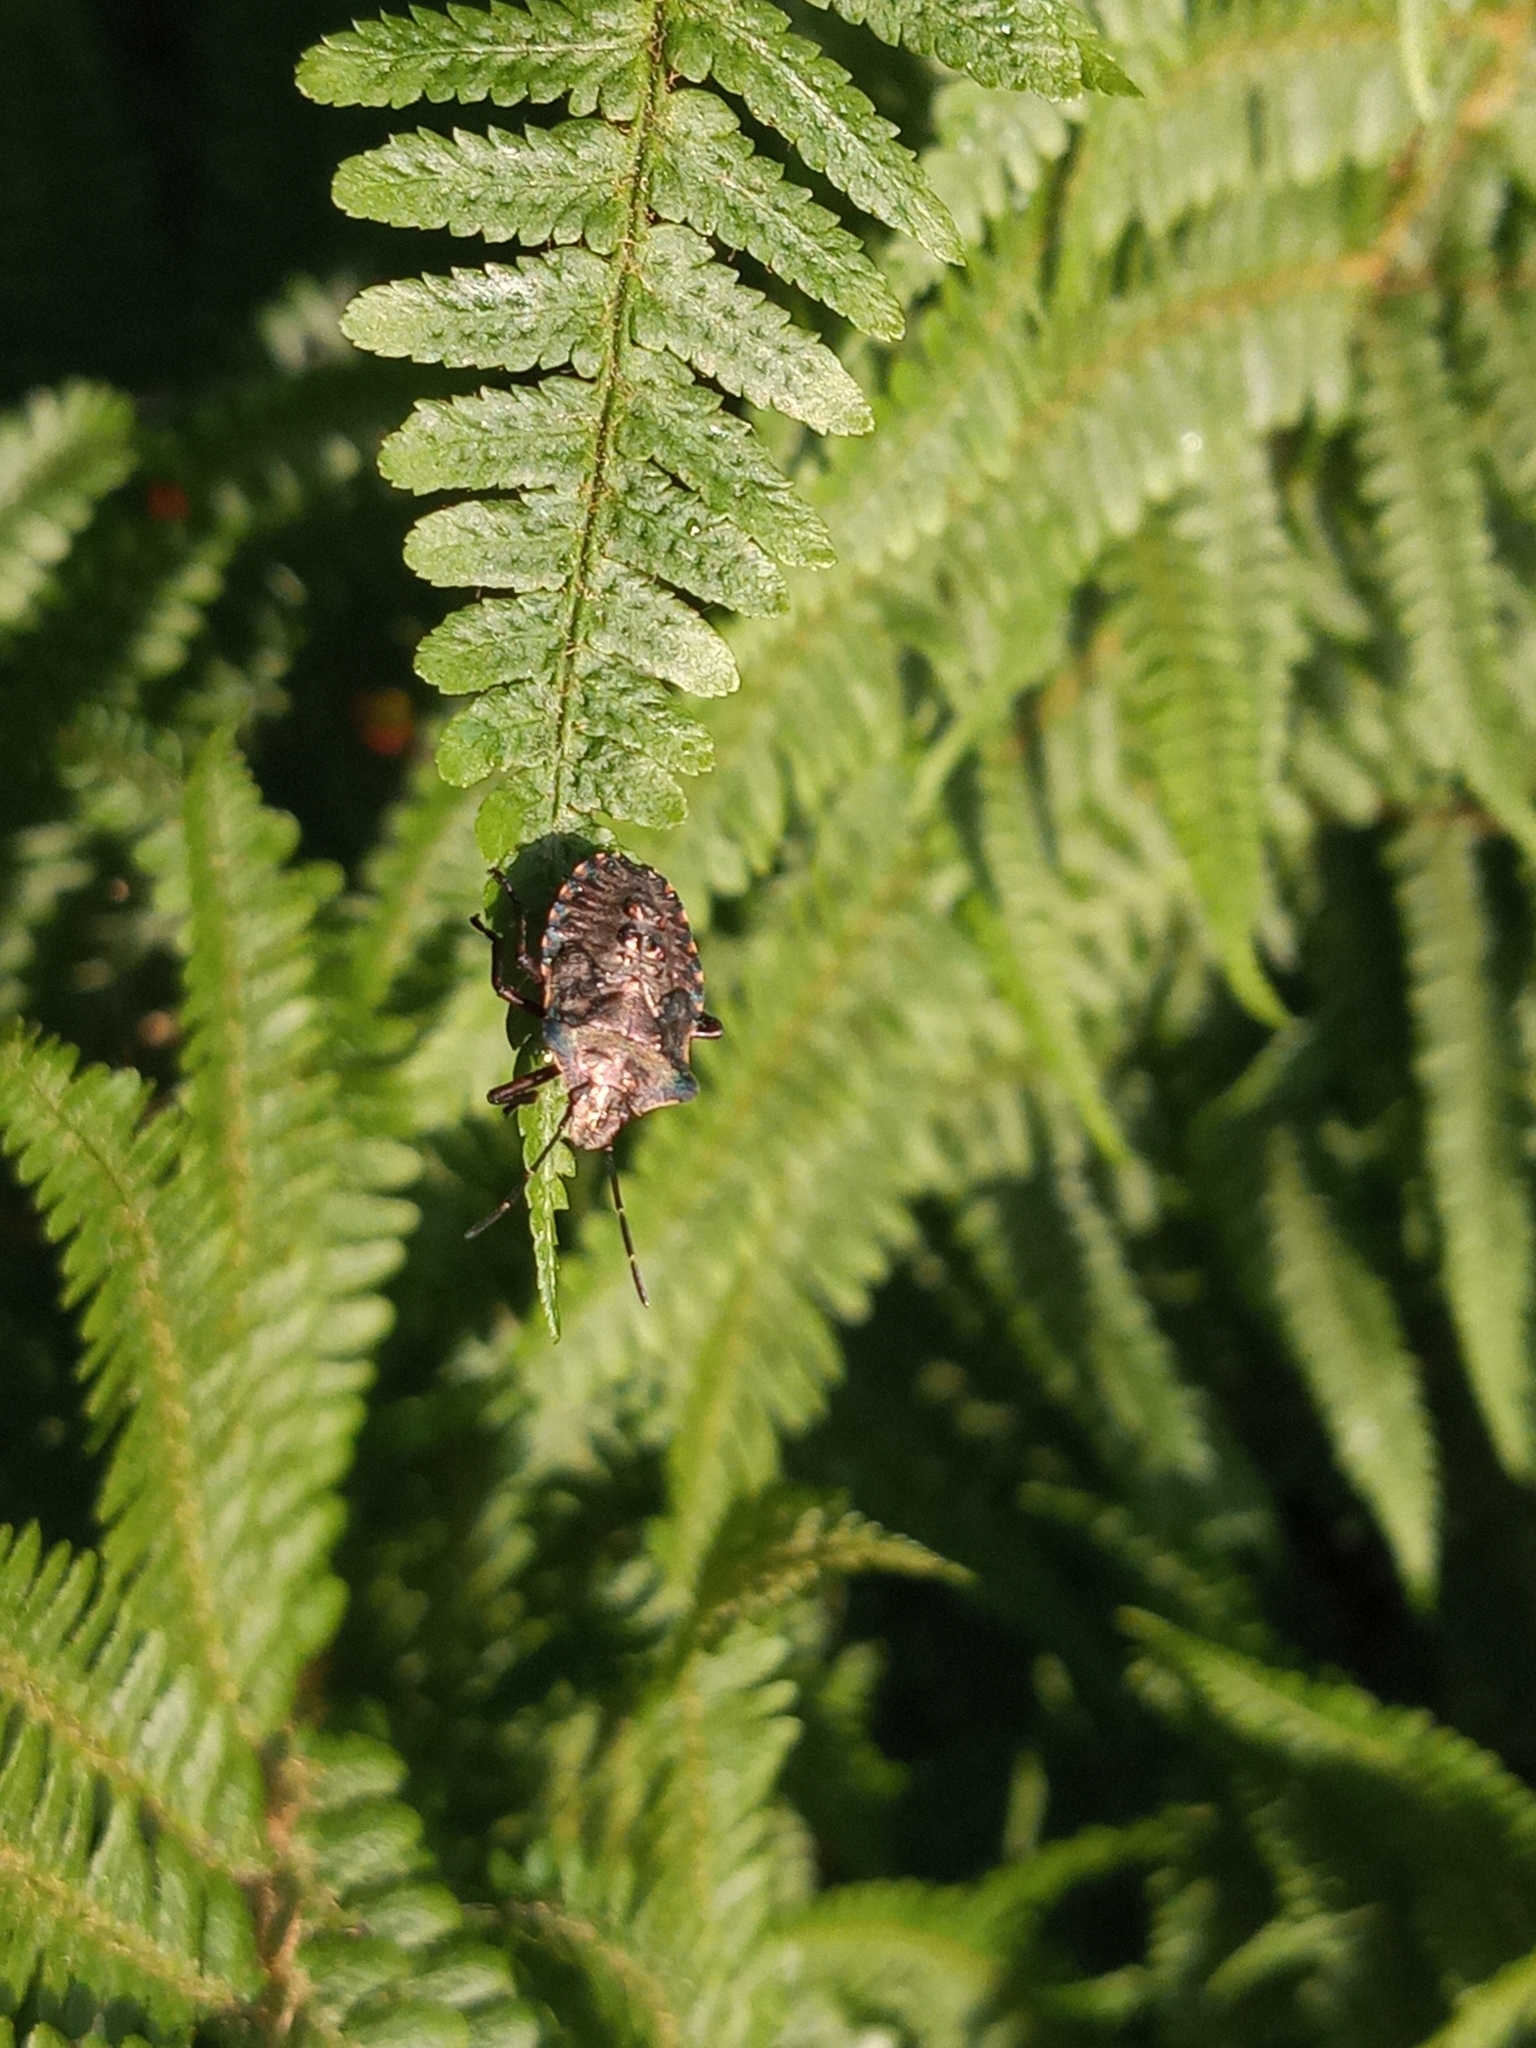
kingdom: Animalia
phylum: Arthropoda
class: Insecta
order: Hemiptera
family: Pentatomidae
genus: Pentatoma
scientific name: Pentatoma rufipes
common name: Forest bug
